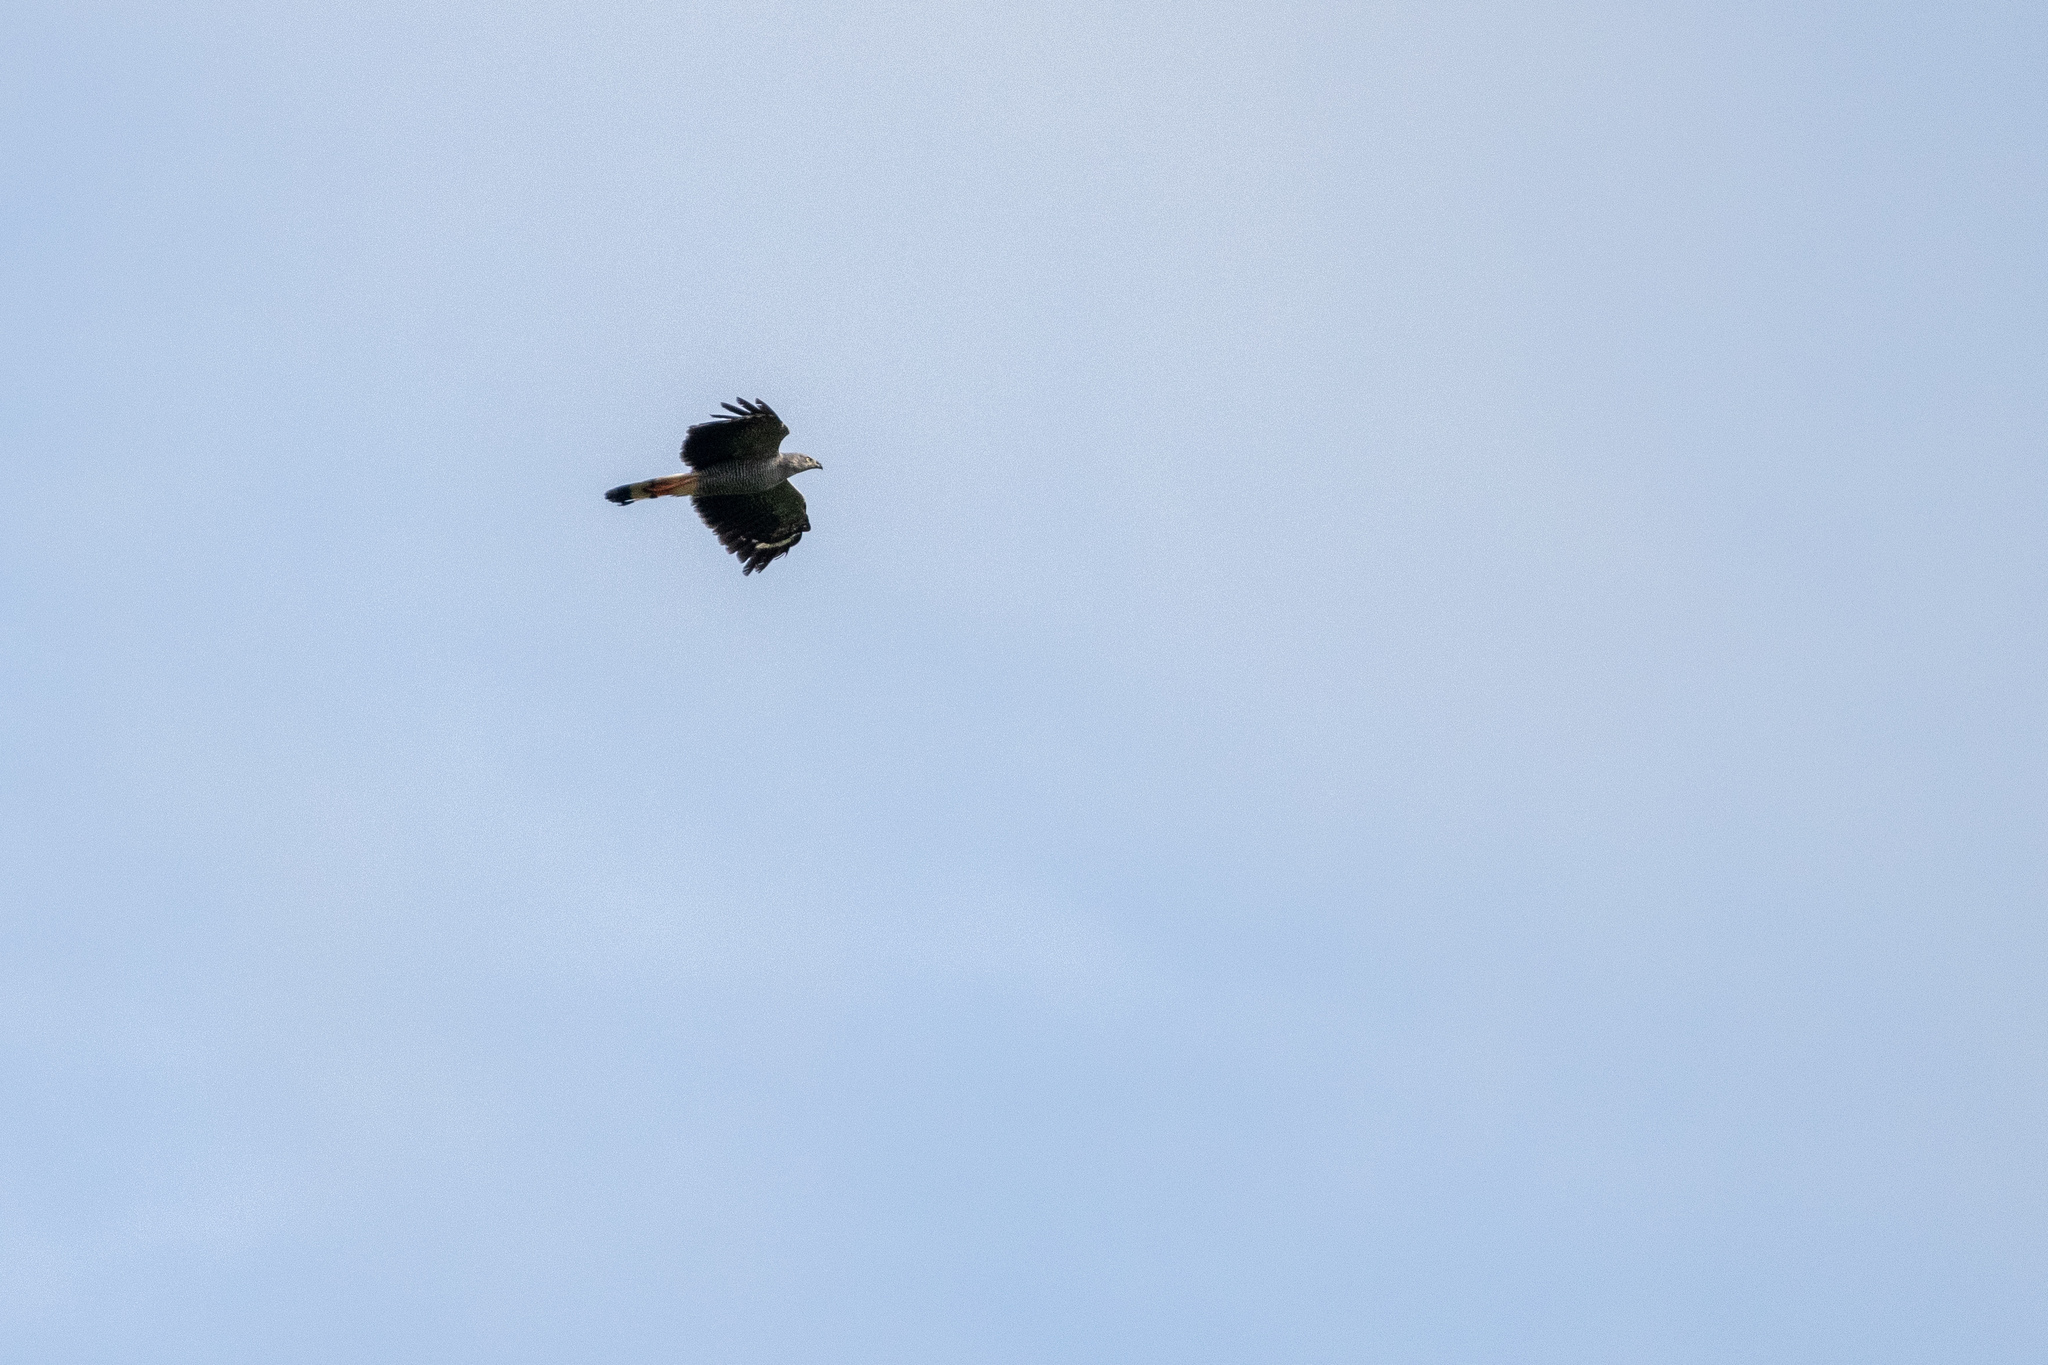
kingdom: Animalia
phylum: Chordata
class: Aves
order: Accipitriformes
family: Accipitridae
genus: Geranospiza
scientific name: Geranospiza caerulescens
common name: Crane hawk
